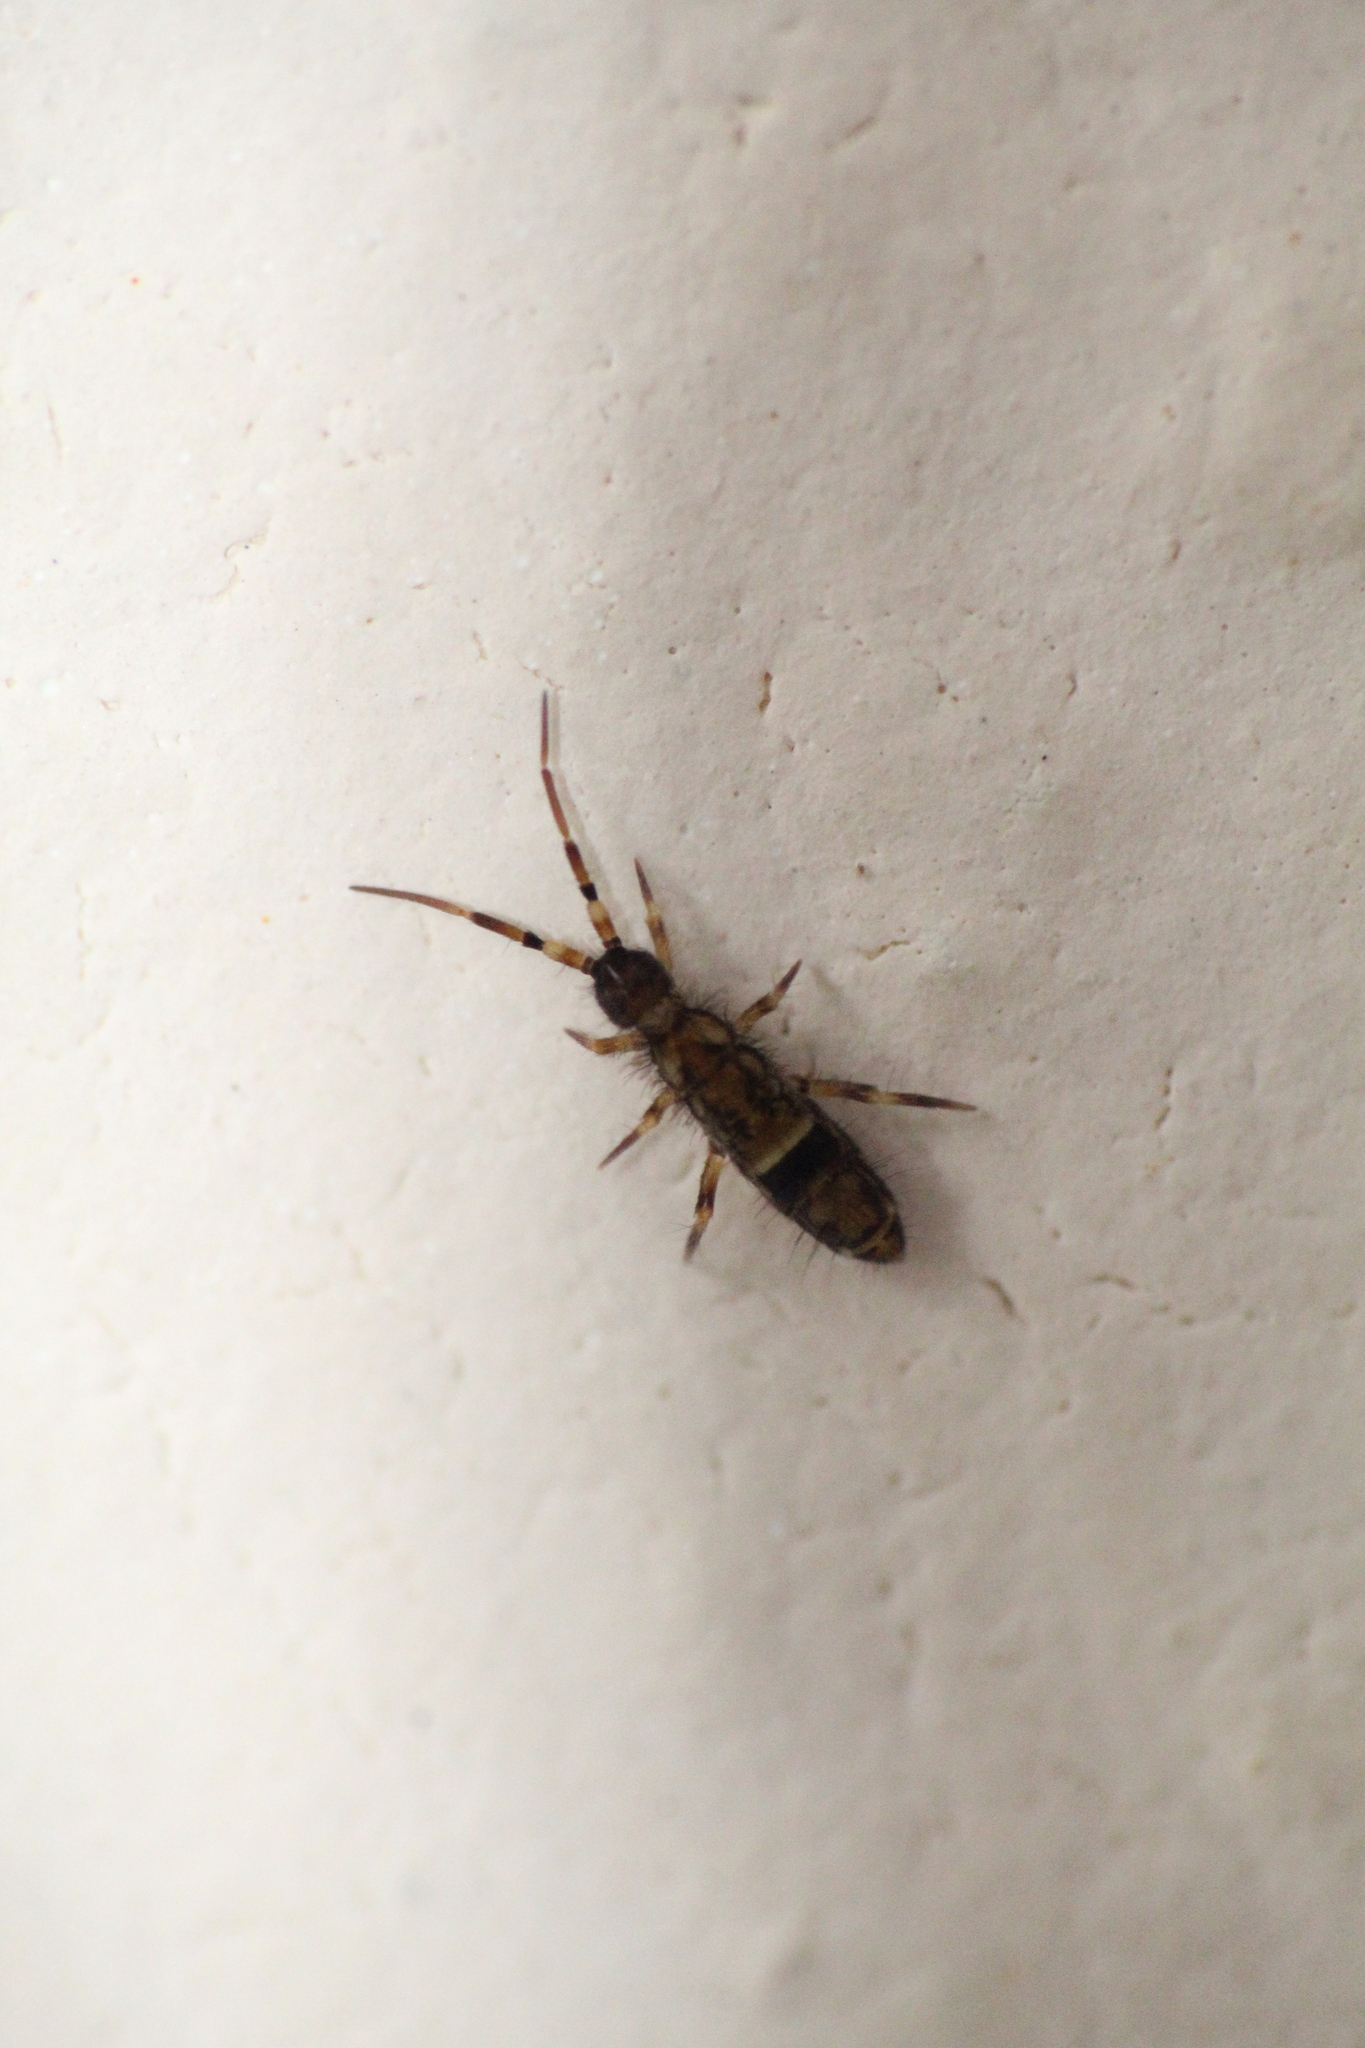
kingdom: Animalia
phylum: Arthropoda
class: Collembola
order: Entomobryomorpha
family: Orchesellidae
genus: Orchesella
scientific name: Orchesella cincta
